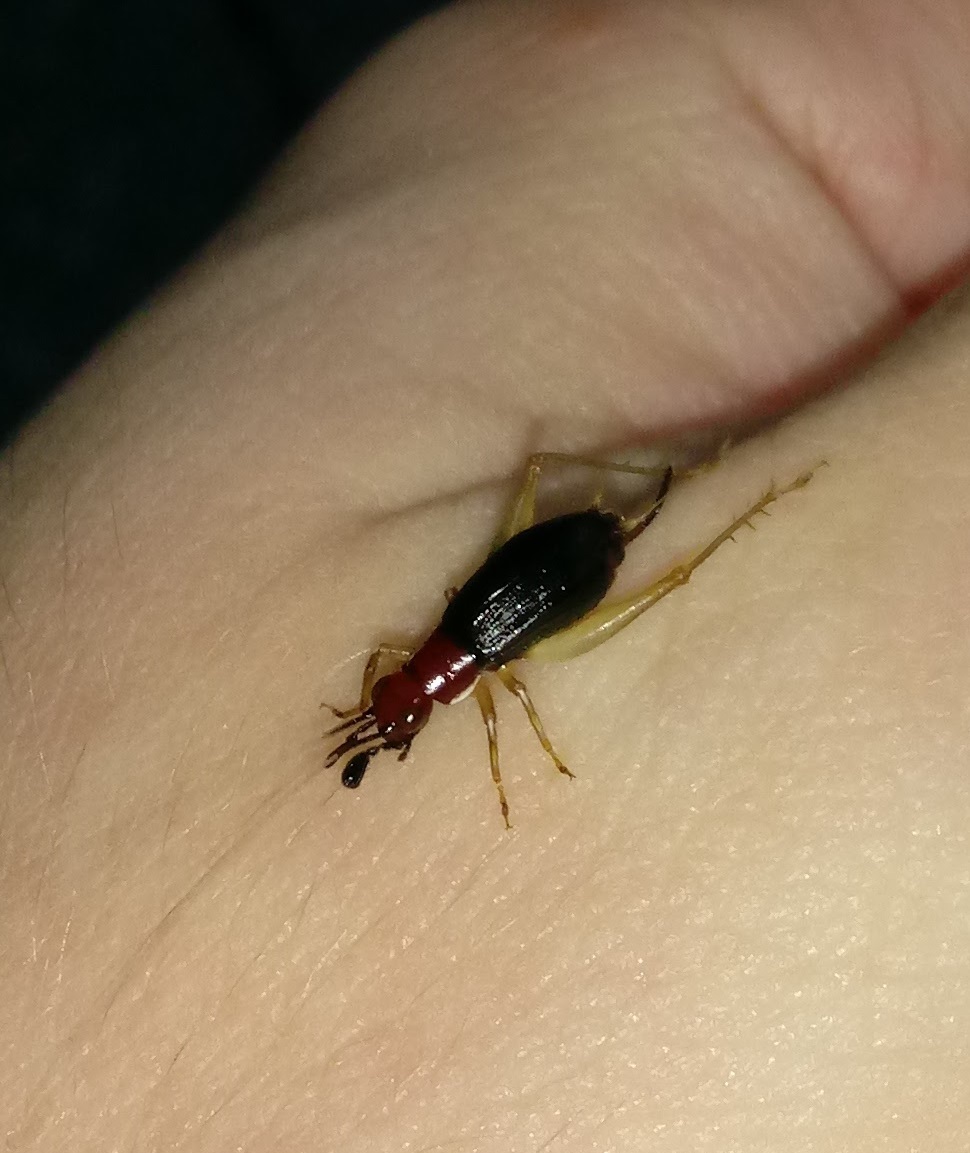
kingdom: Animalia
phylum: Arthropoda
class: Insecta
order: Orthoptera
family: Trigonidiidae
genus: Phyllopalpus
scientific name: Phyllopalpus pulchellus
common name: Handsome trig
